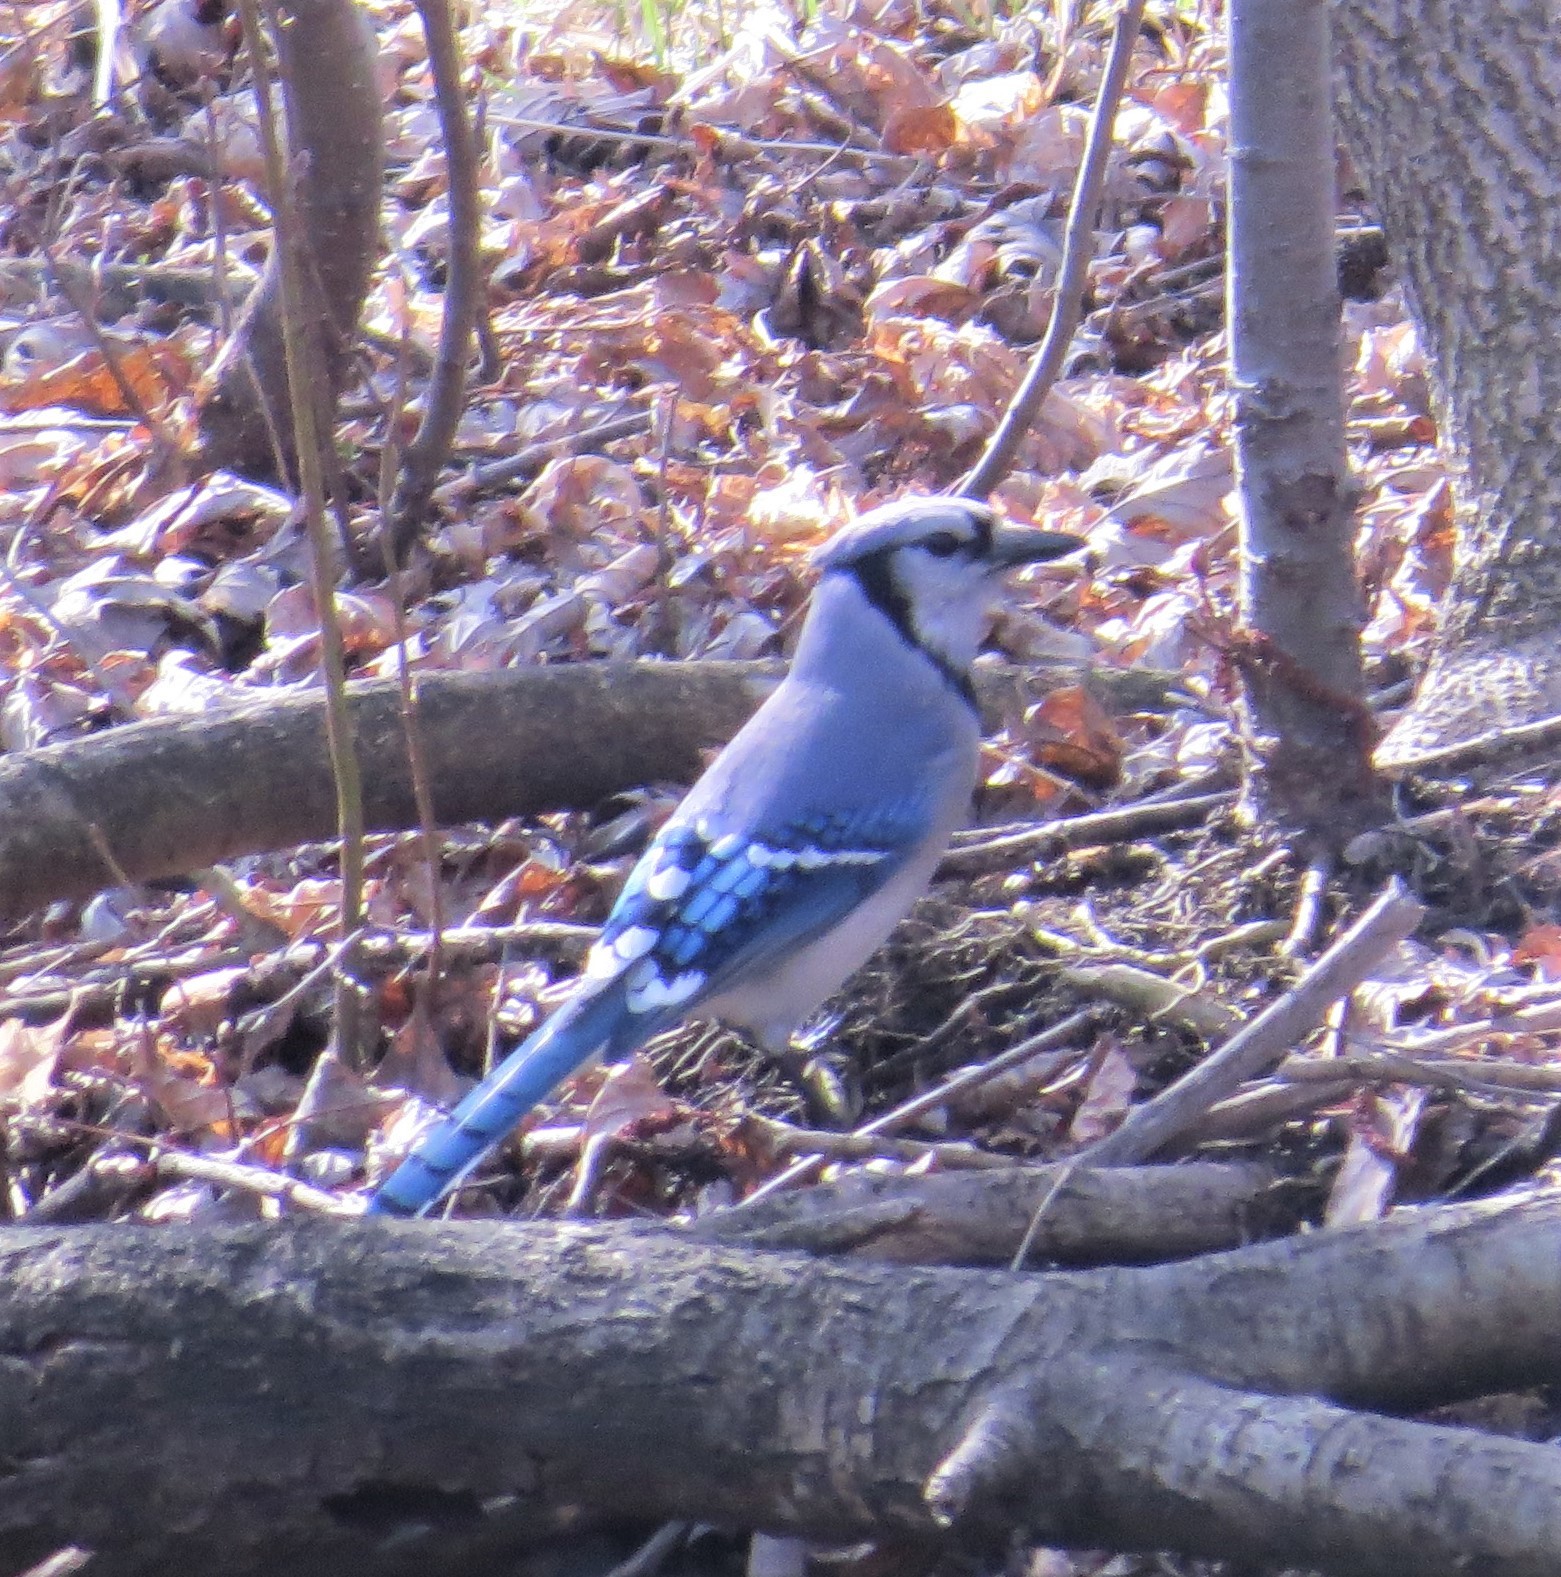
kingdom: Animalia
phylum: Chordata
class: Aves
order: Passeriformes
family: Corvidae
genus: Cyanocitta
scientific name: Cyanocitta cristata
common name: Blue jay
